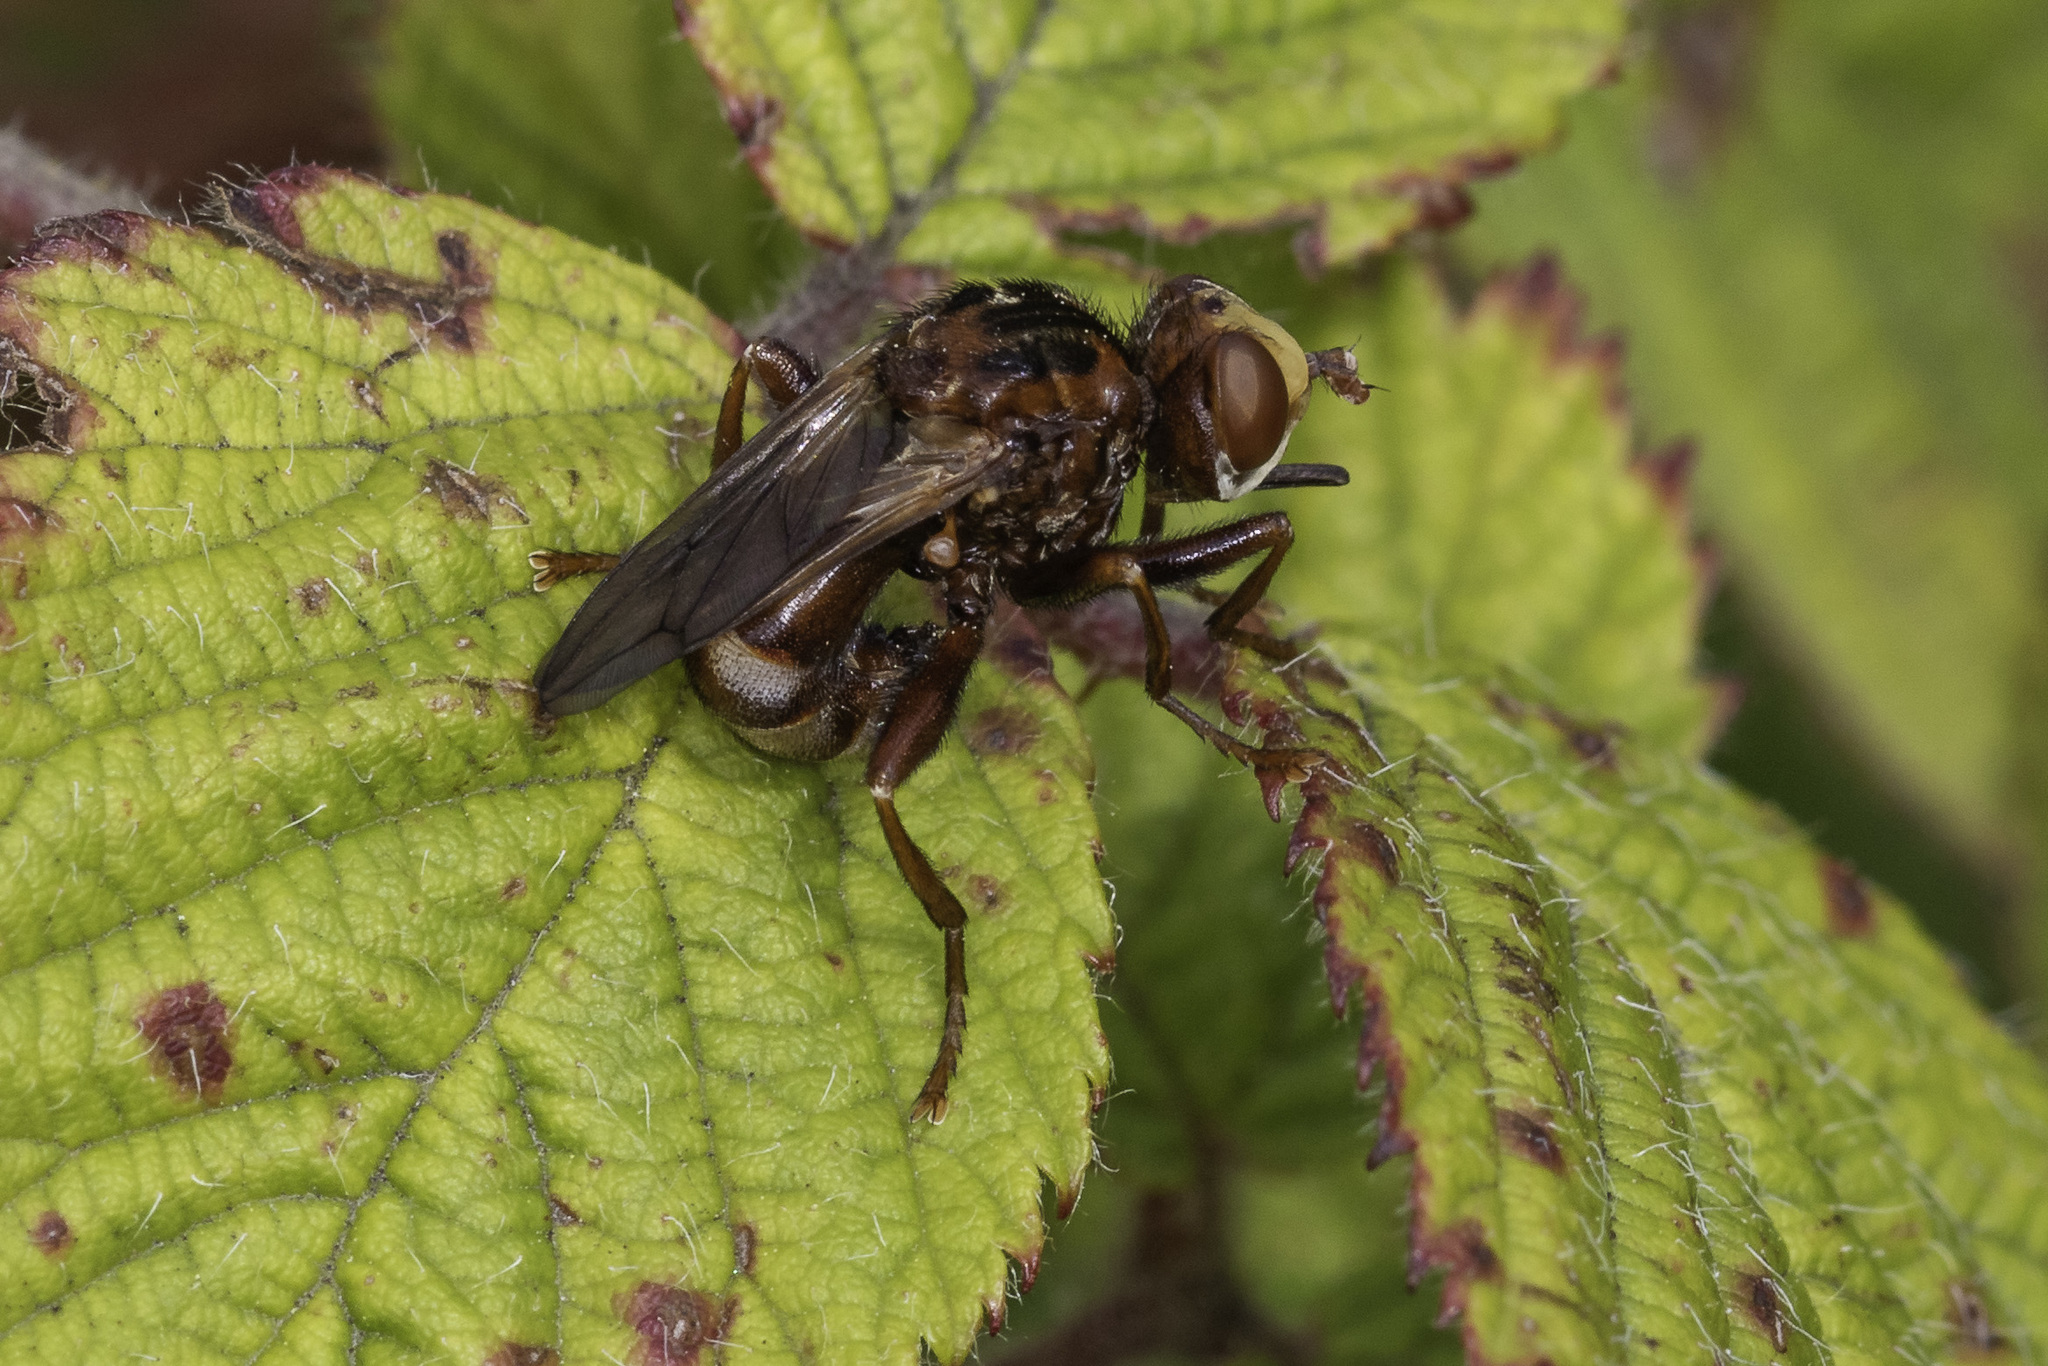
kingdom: Animalia
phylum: Arthropoda
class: Insecta
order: Diptera
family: Conopidae
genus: Sicus
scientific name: Sicus ferrugineus
